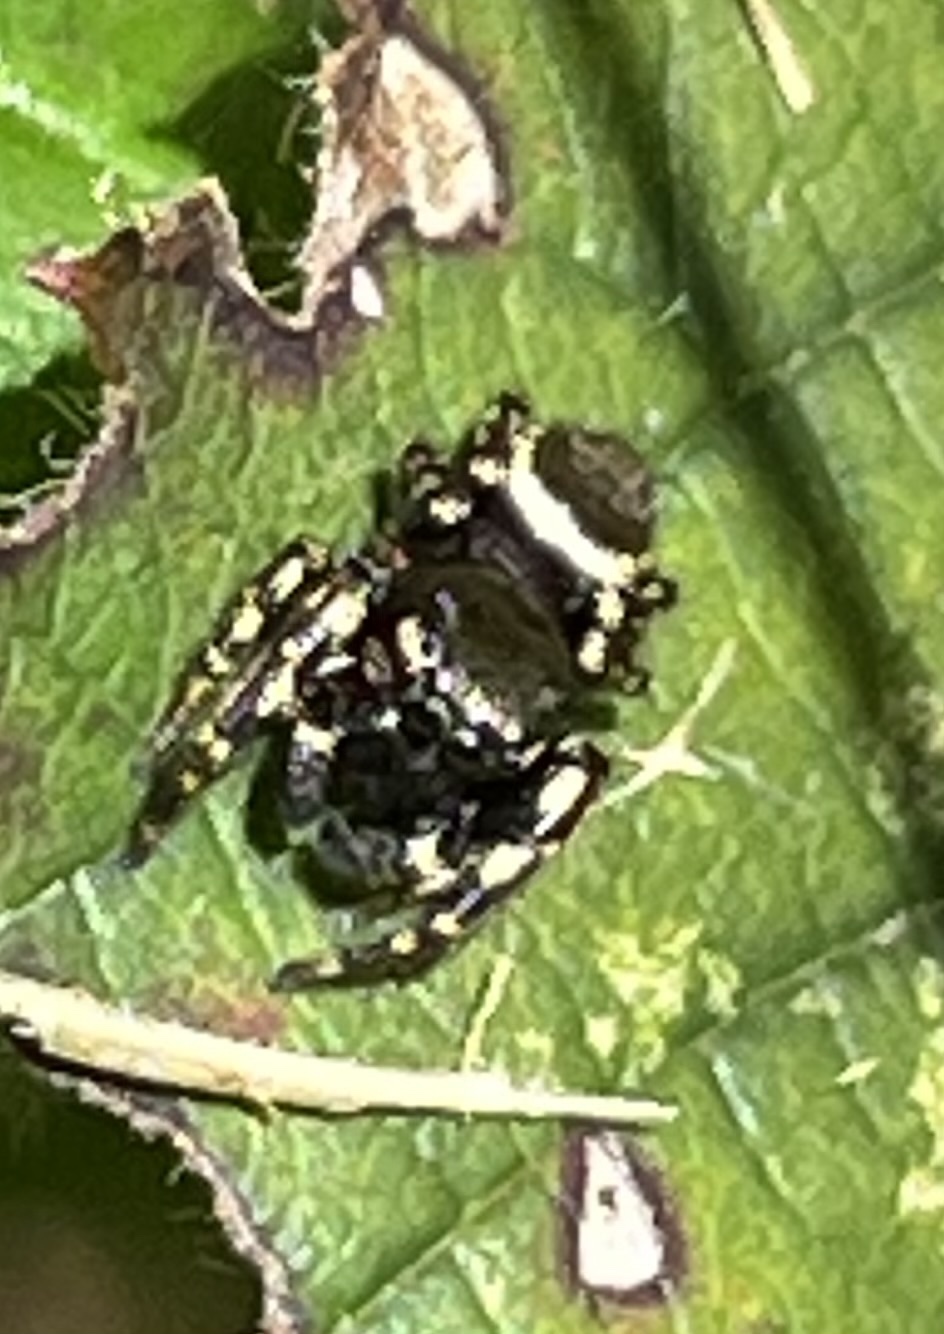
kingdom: Animalia
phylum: Arthropoda
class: Arachnida
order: Araneae
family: Salticidae
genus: Pelegrina
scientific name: Pelegrina aeneola
